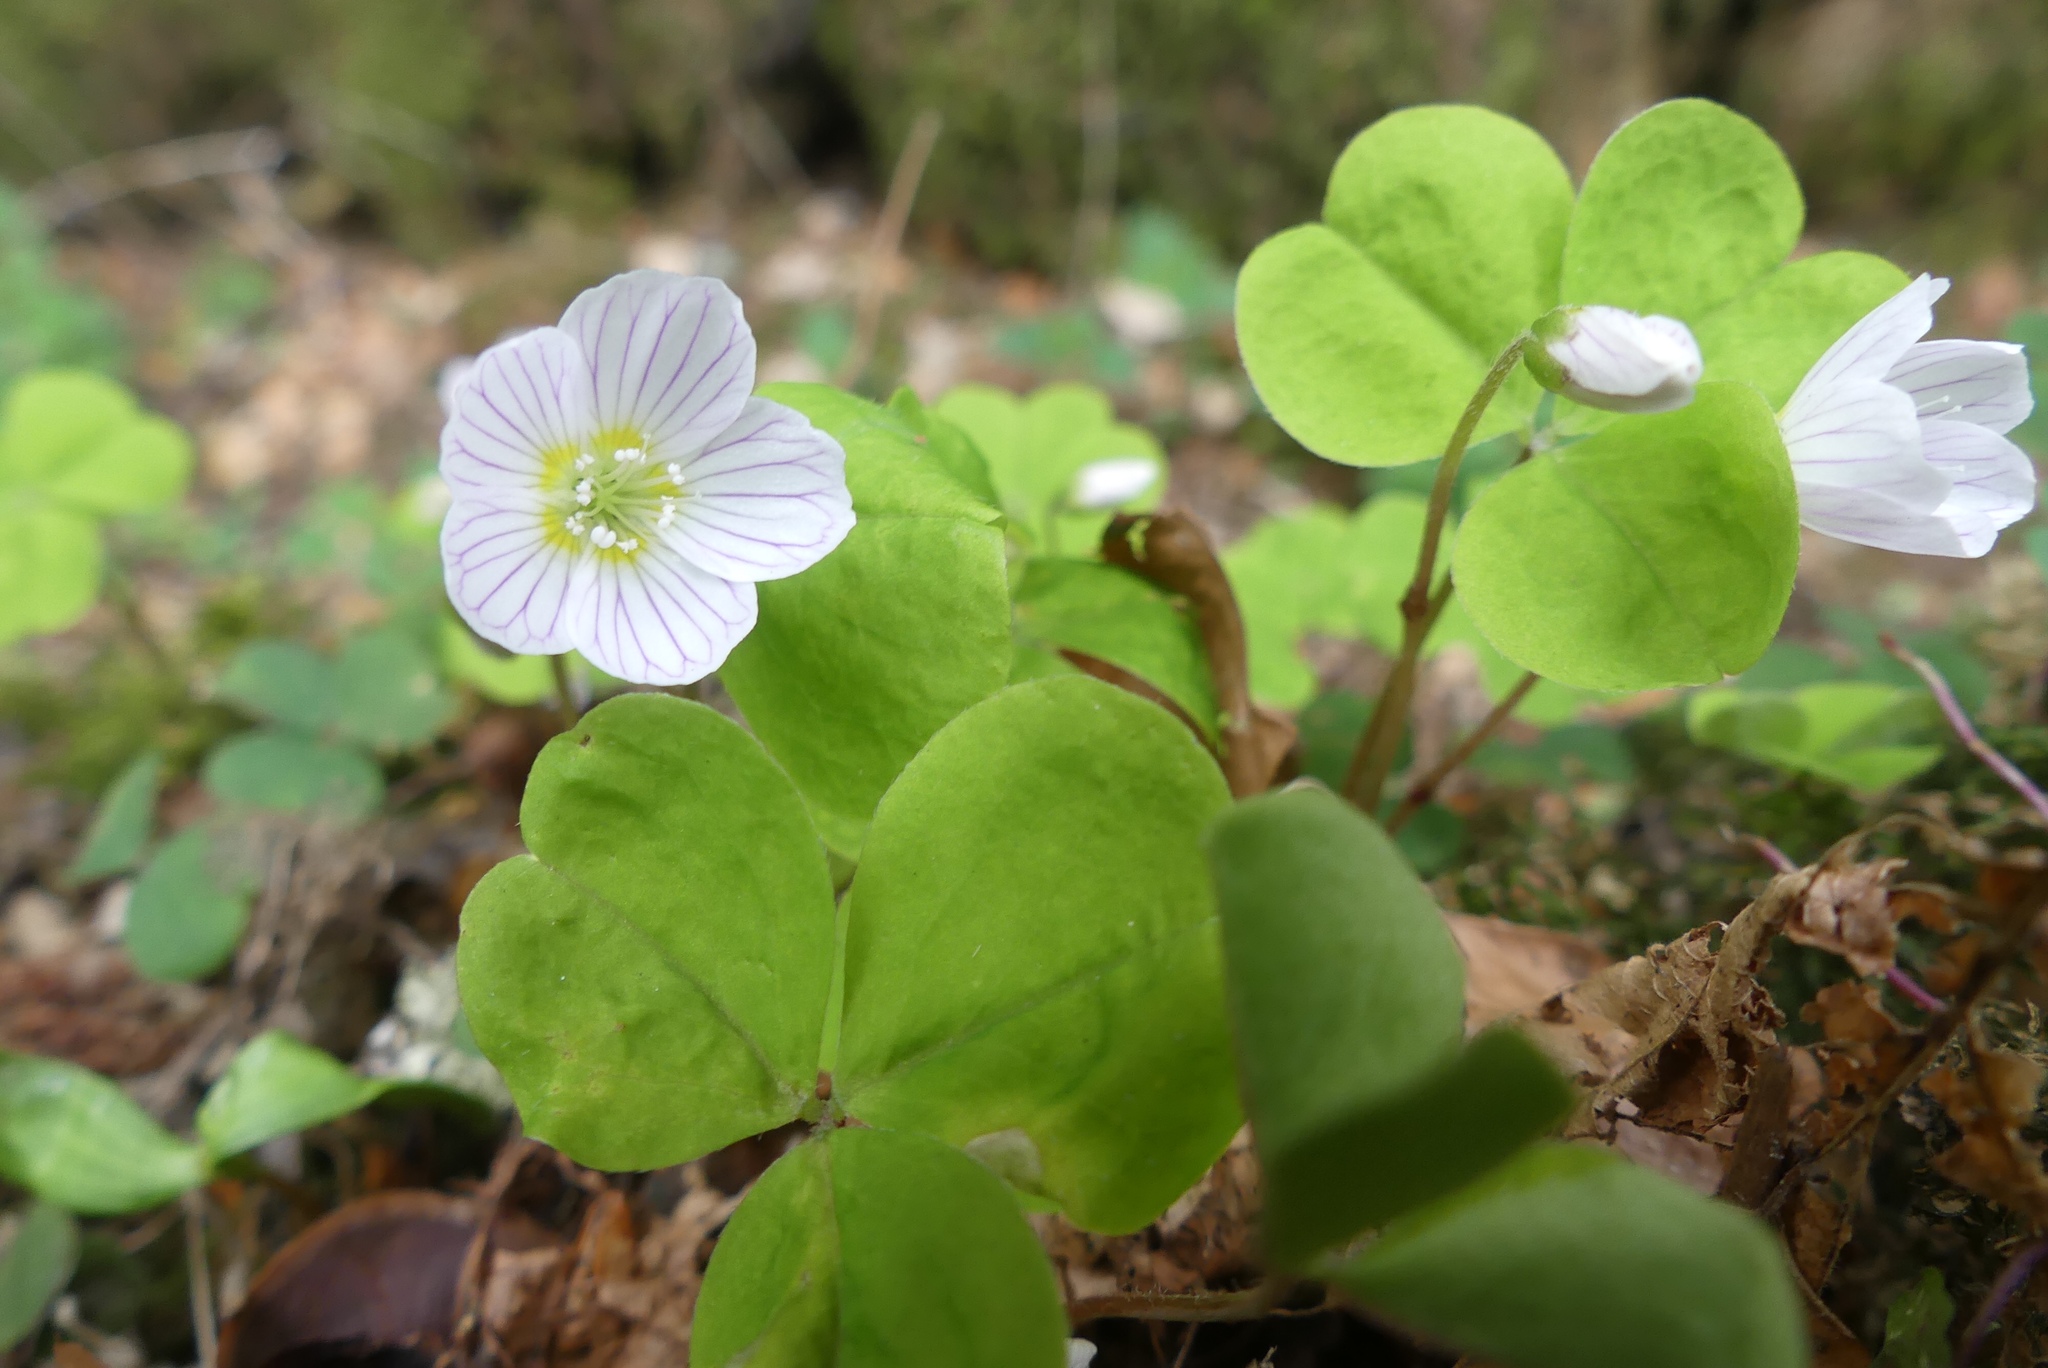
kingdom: Plantae
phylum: Tracheophyta
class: Magnoliopsida
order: Oxalidales
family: Oxalidaceae
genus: Oxalis
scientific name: Oxalis acetosella
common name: Wood-sorrel
